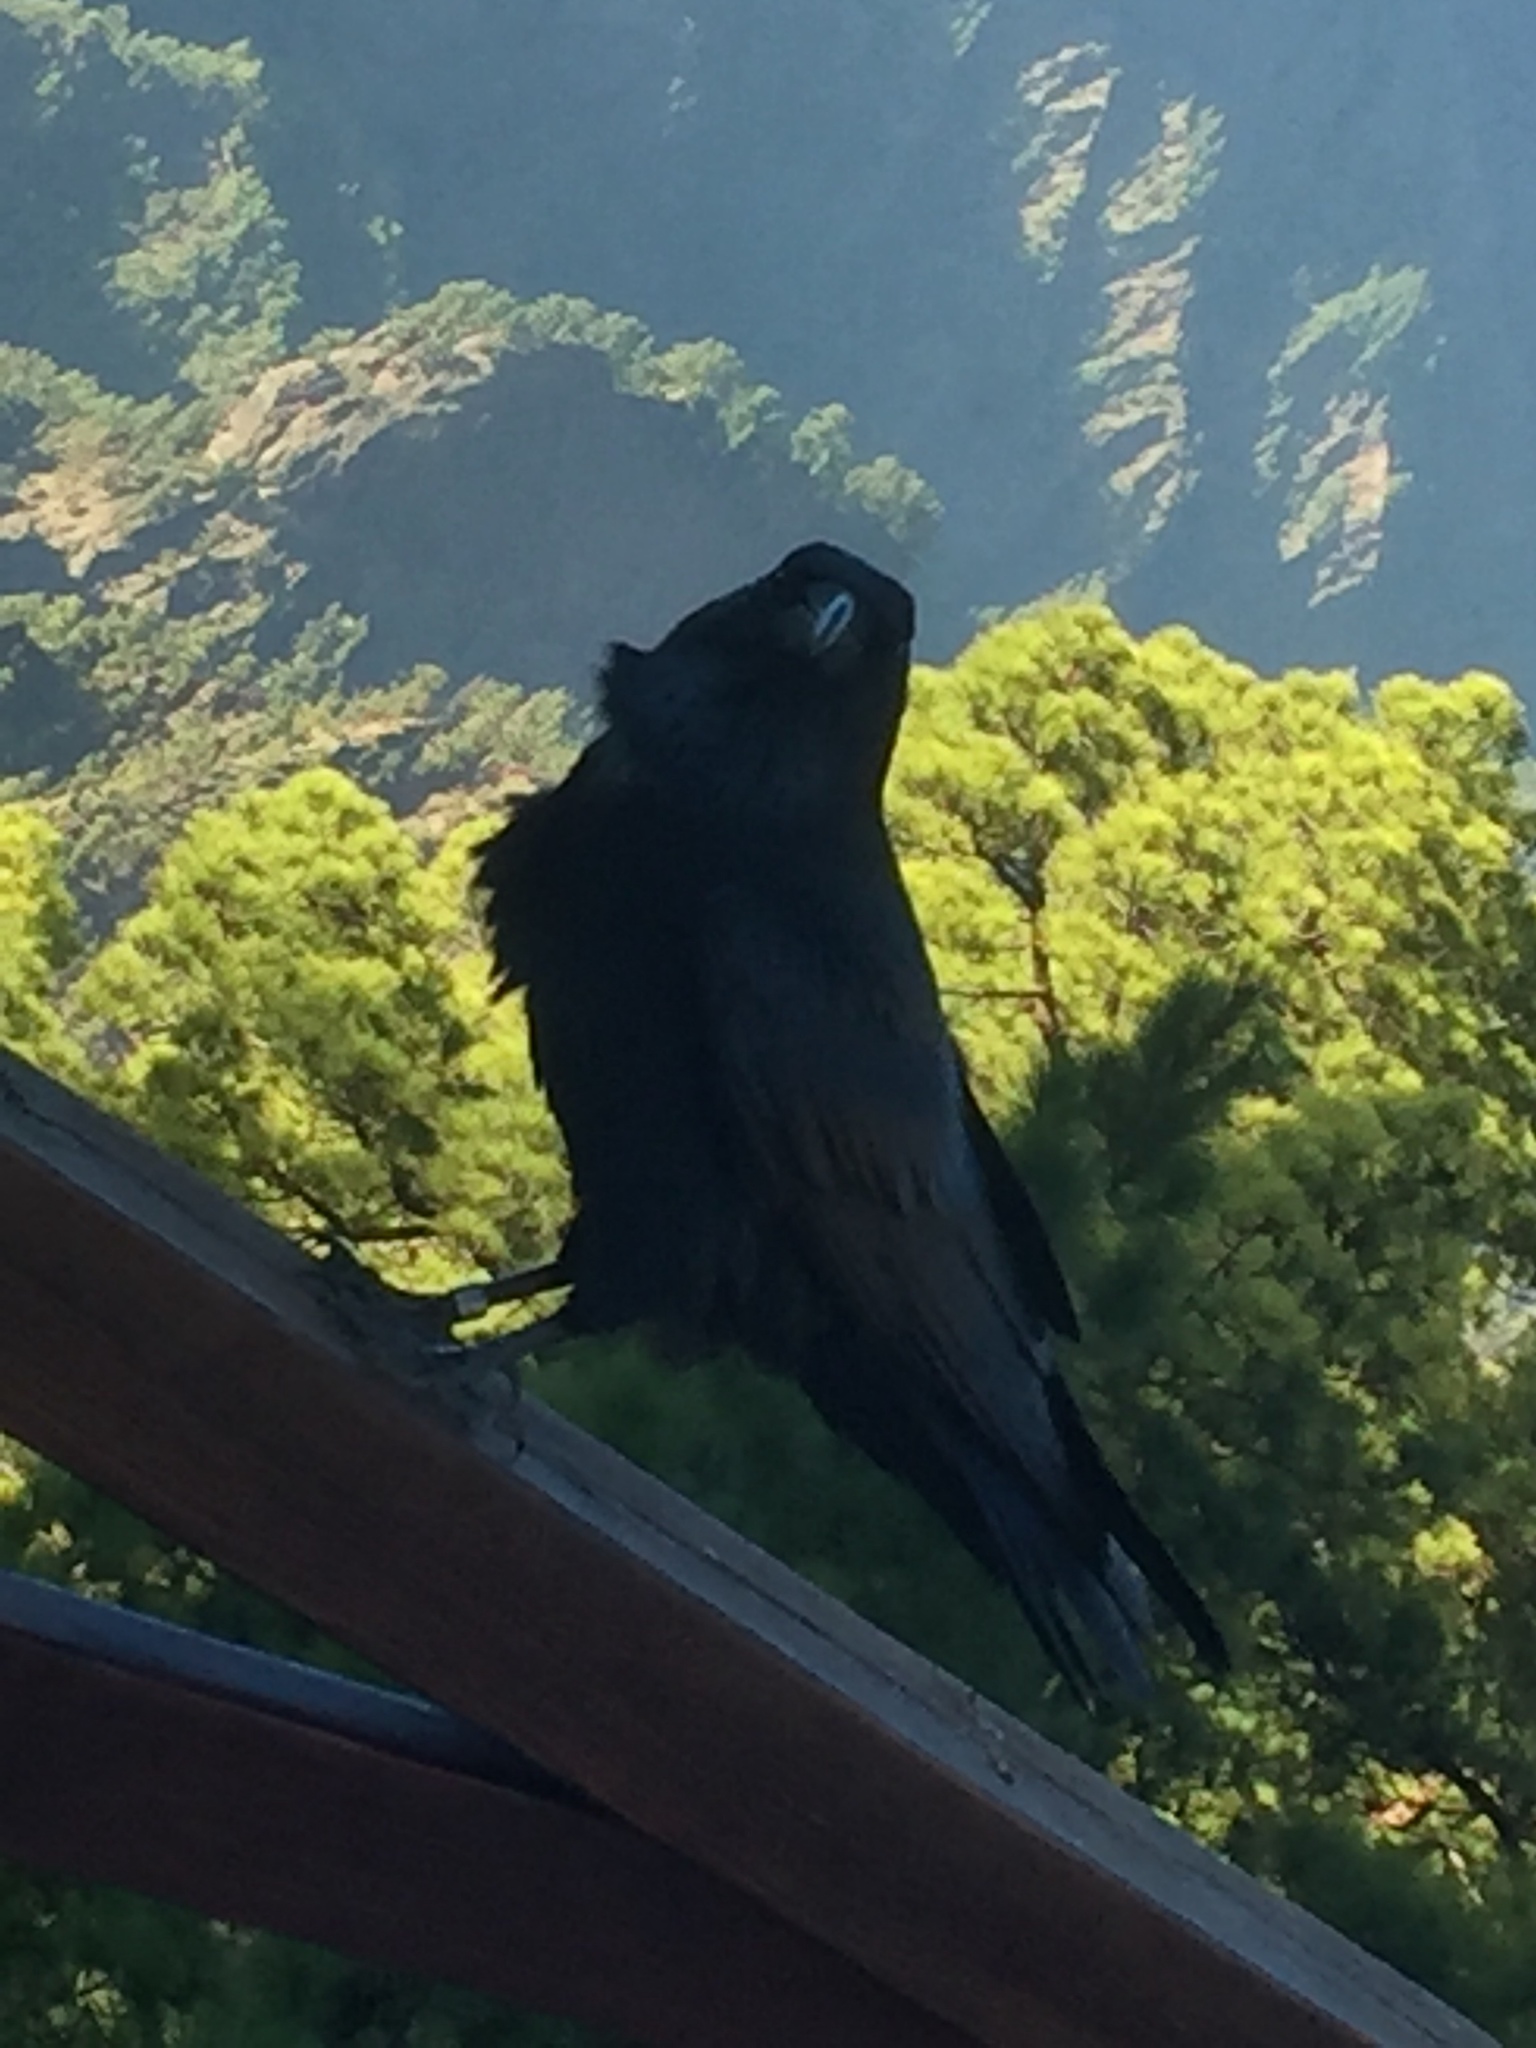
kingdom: Animalia
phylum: Chordata
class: Aves
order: Passeriformes
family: Corvidae
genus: Corvus
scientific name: Corvus corax
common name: Common raven
